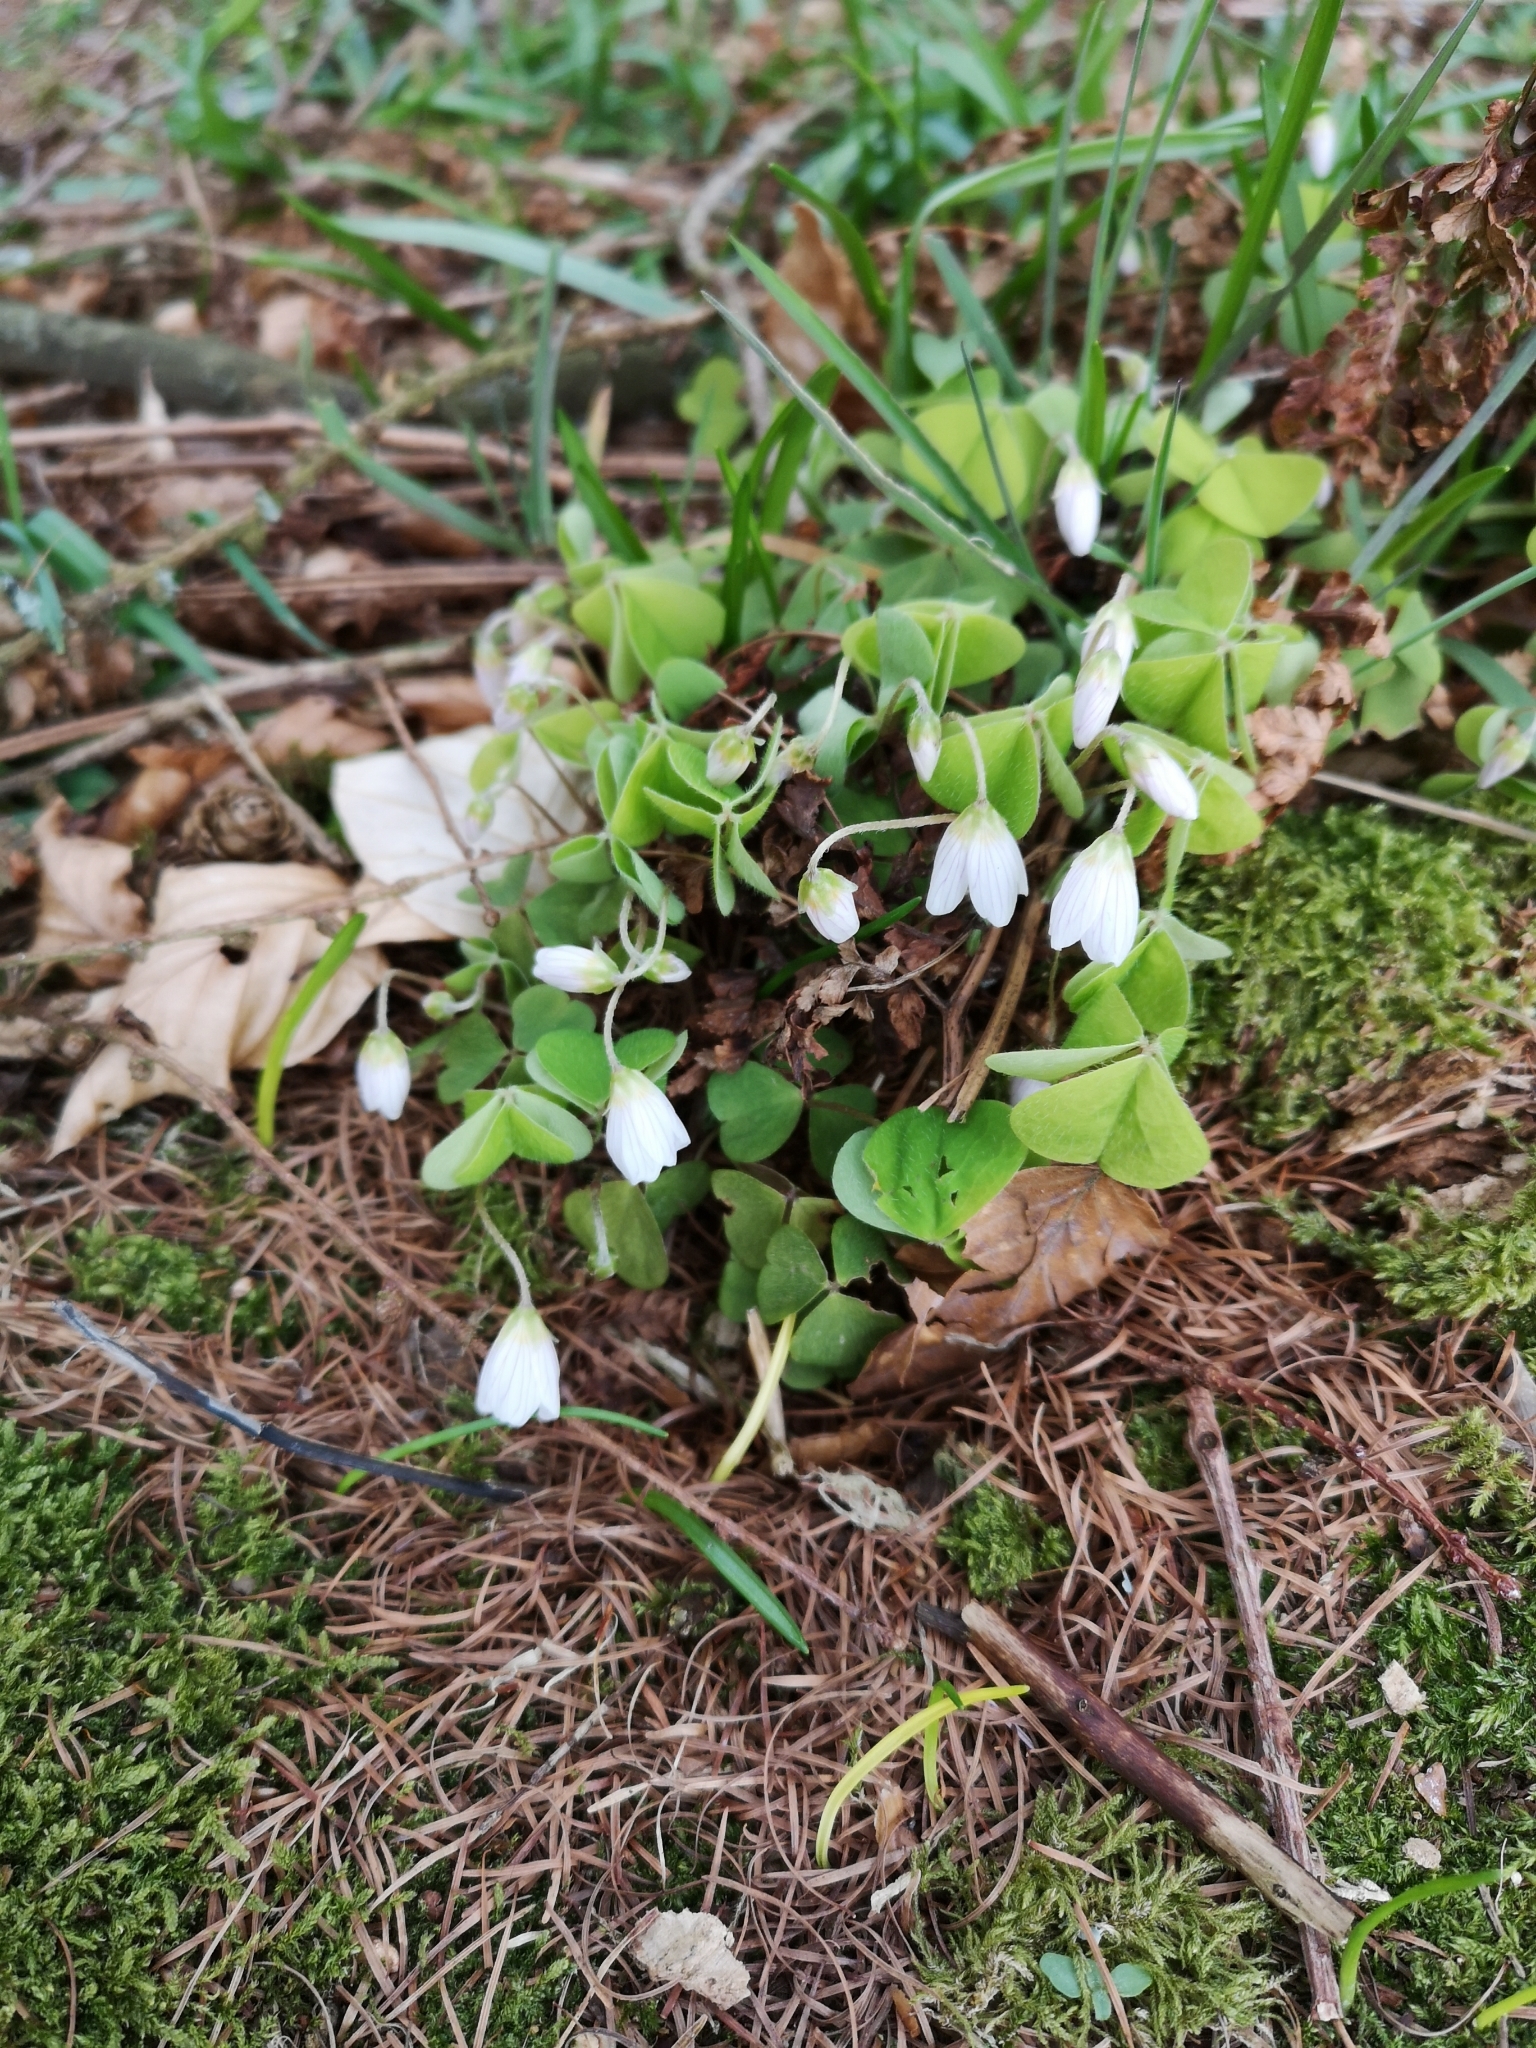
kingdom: Plantae
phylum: Tracheophyta
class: Magnoliopsida
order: Oxalidales
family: Oxalidaceae
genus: Oxalis
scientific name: Oxalis acetosella
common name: Wood-sorrel
